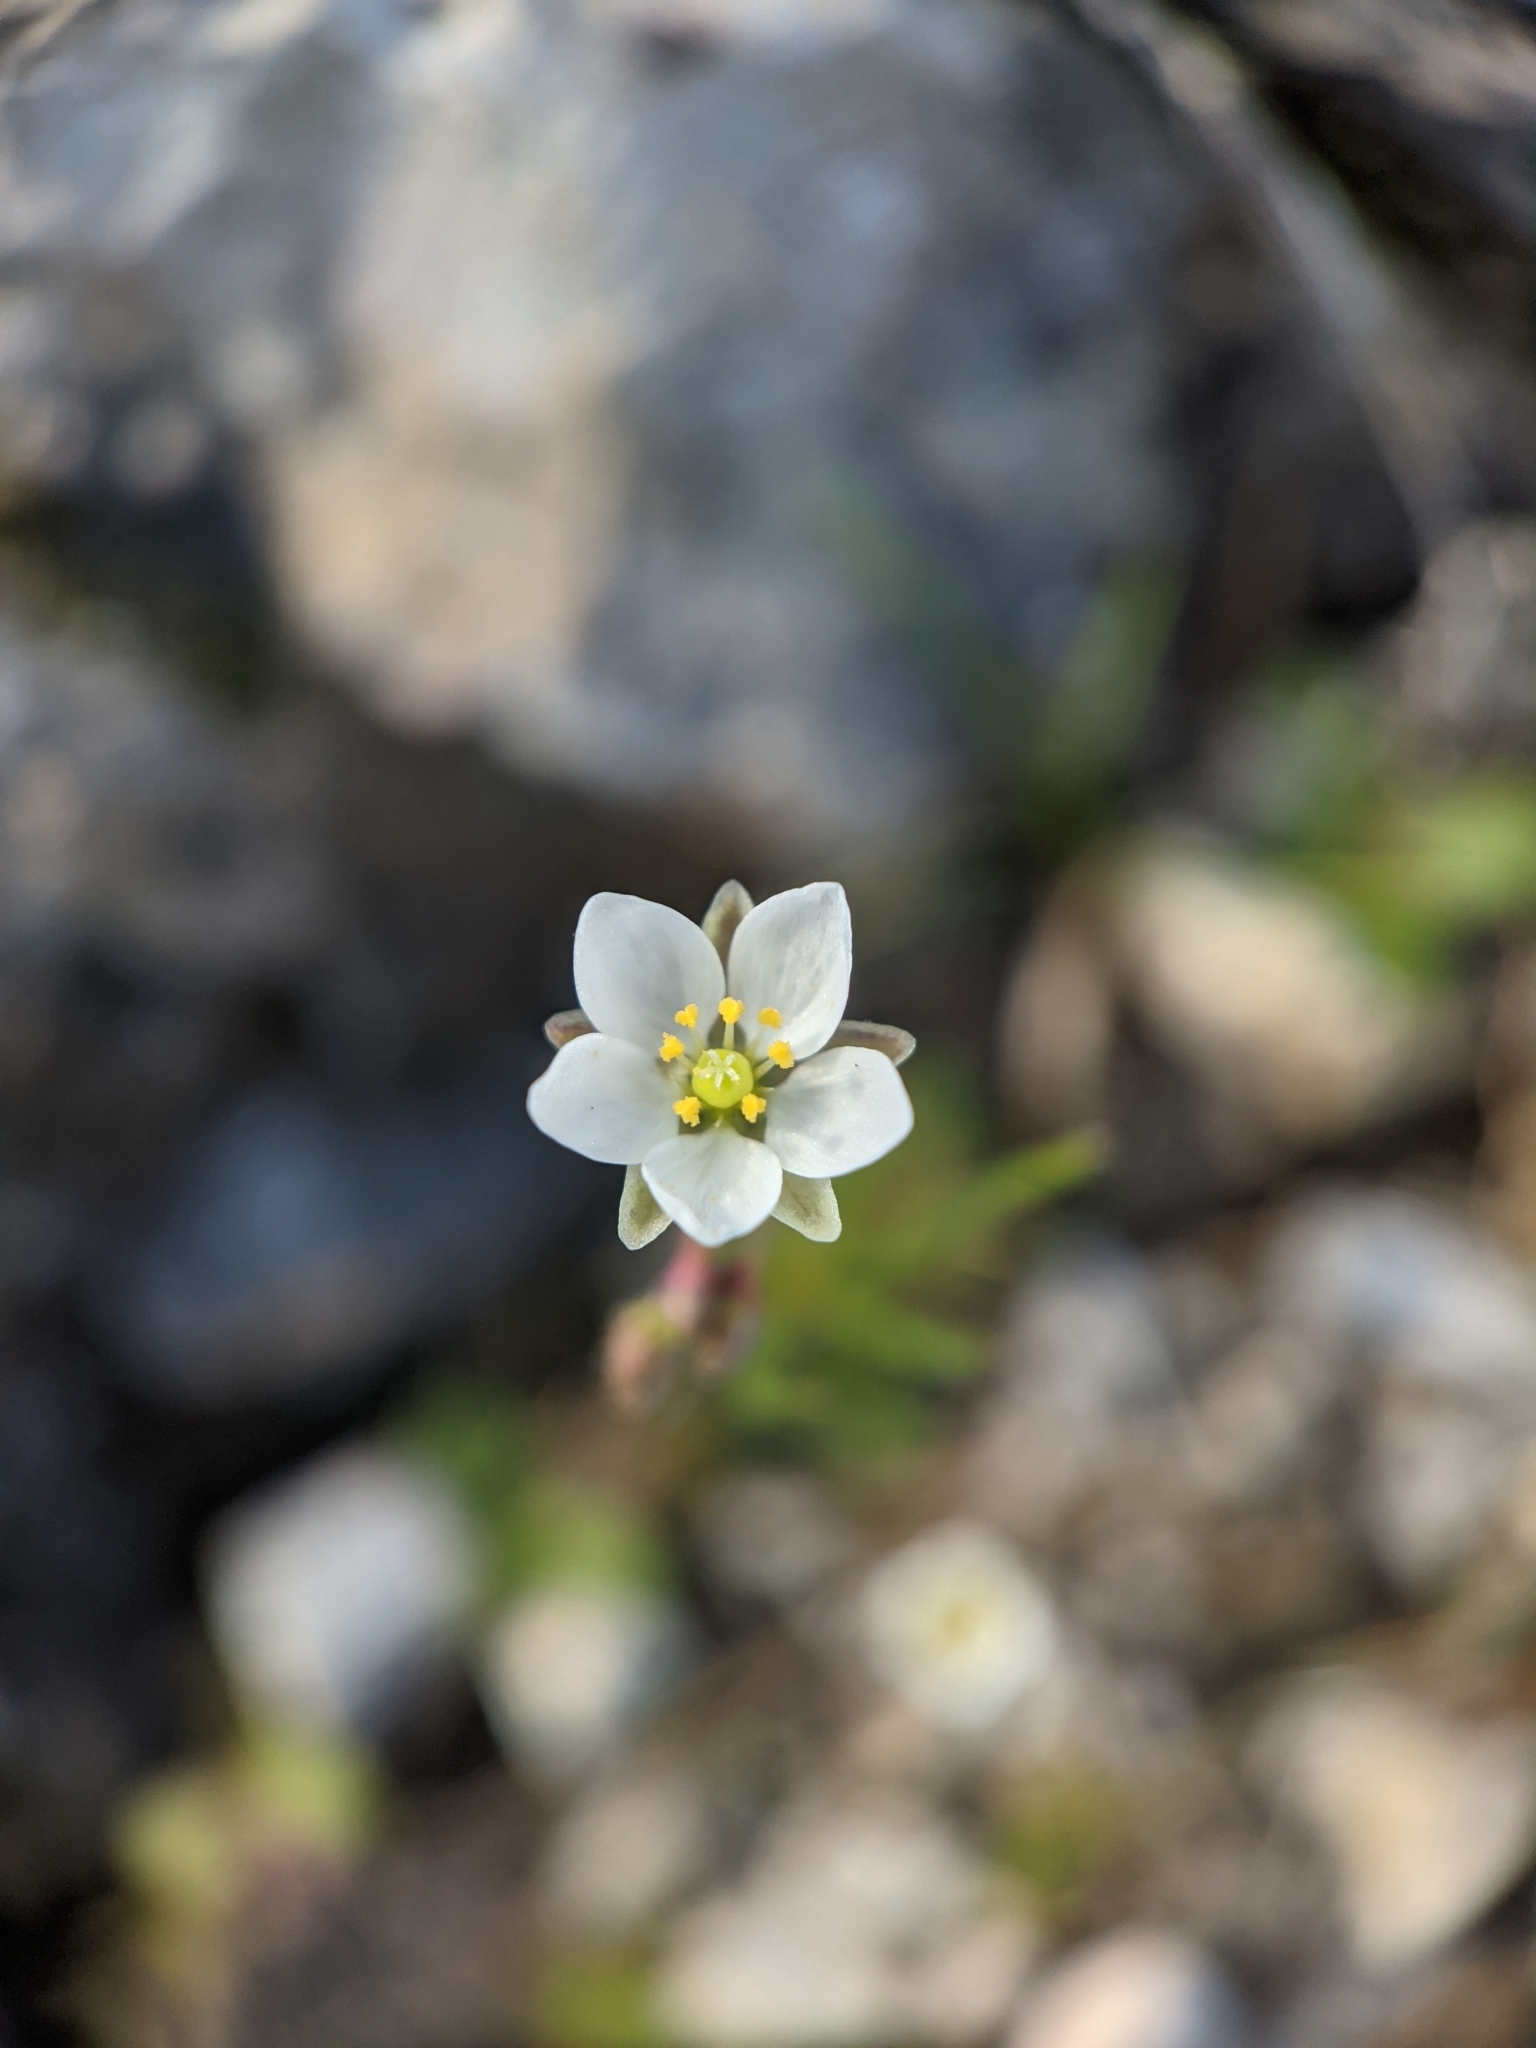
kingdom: Plantae
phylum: Tracheophyta
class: Magnoliopsida
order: Caryophyllales
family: Caryophyllaceae
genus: Spergula
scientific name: Spergula arvensis
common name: Corn spurrey
